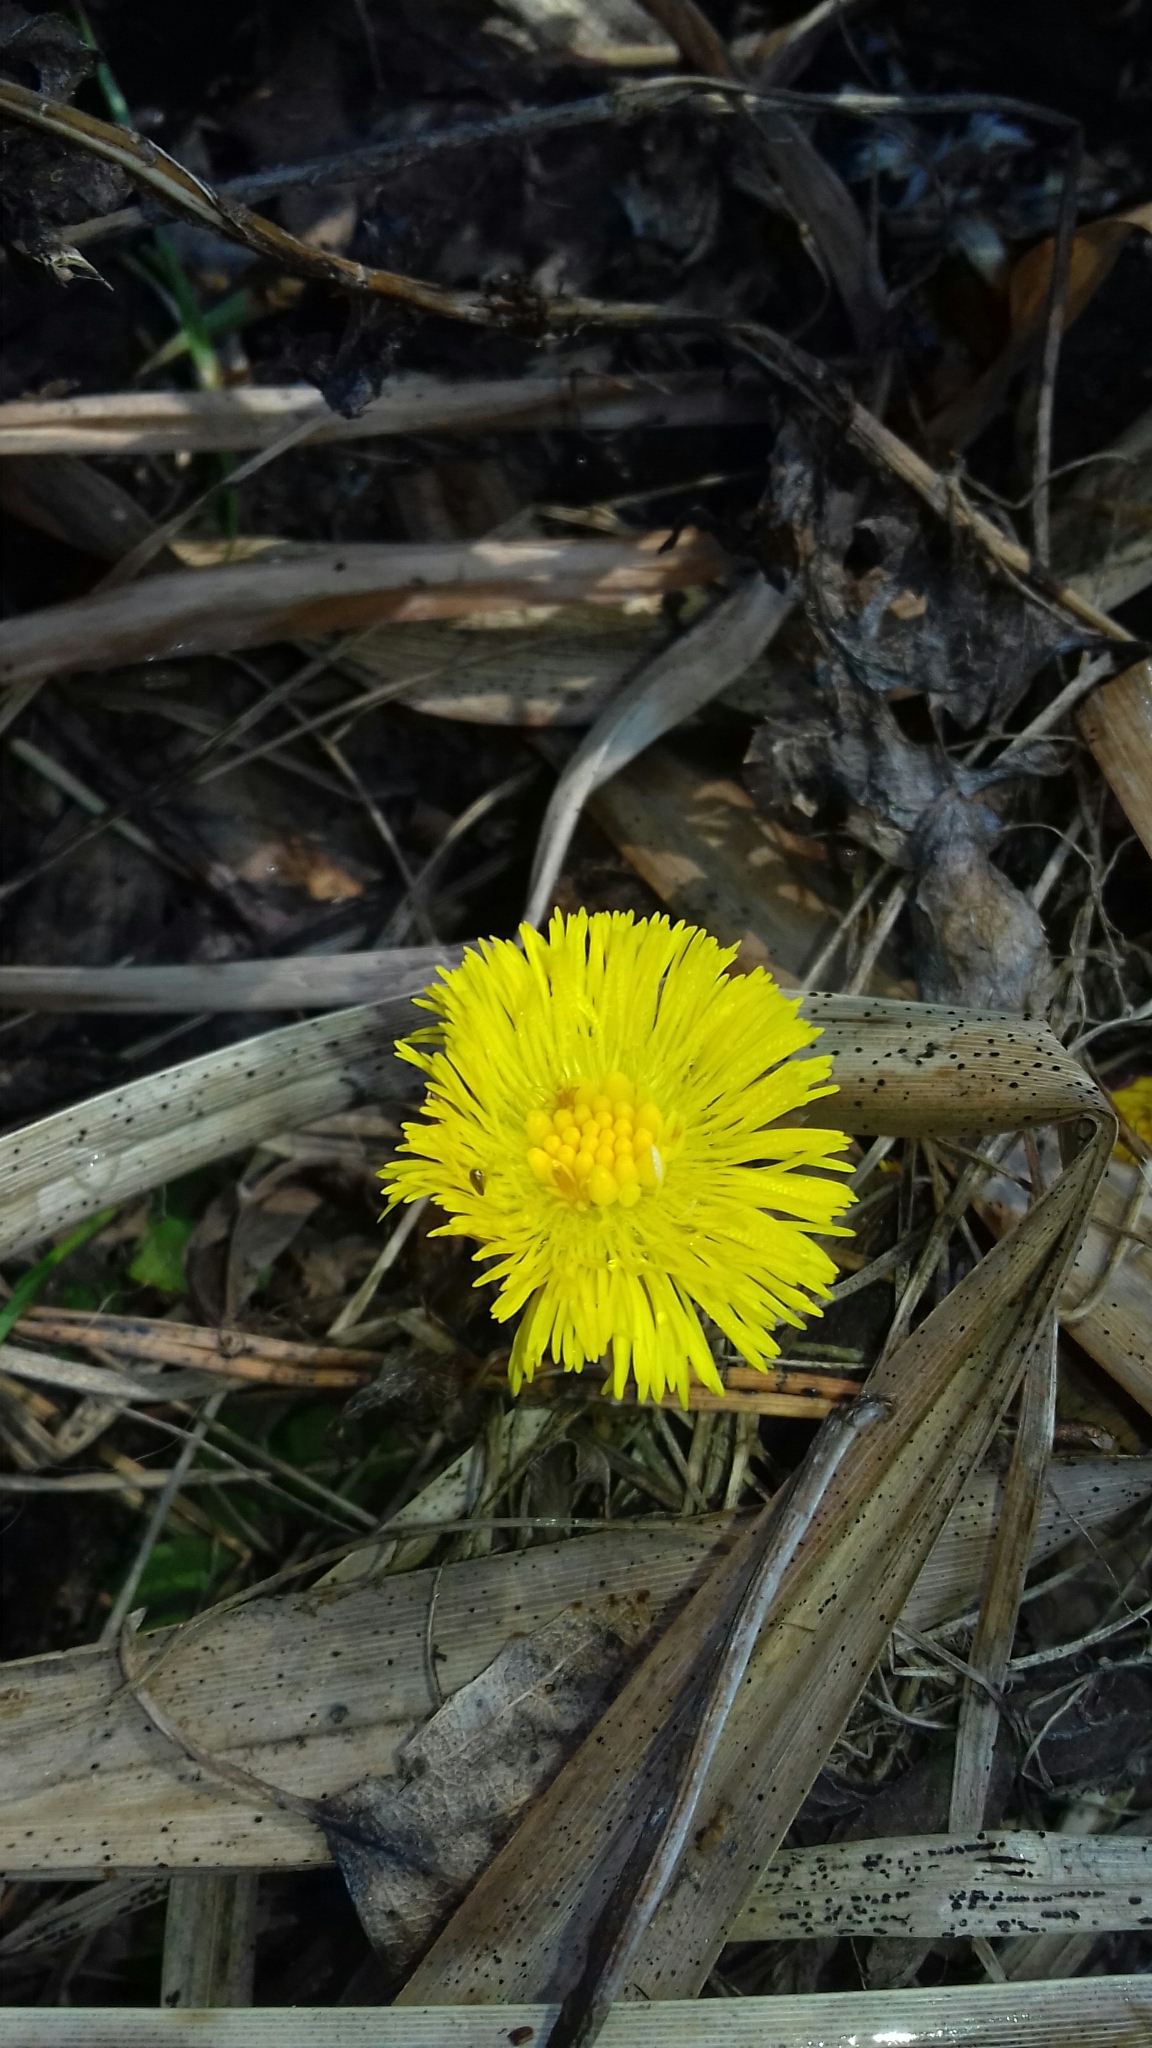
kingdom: Plantae
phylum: Tracheophyta
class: Magnoliopsida
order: Asterales
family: Asteraceae
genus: Tussilago
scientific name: Tussilago farfara
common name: Coltsfoot
